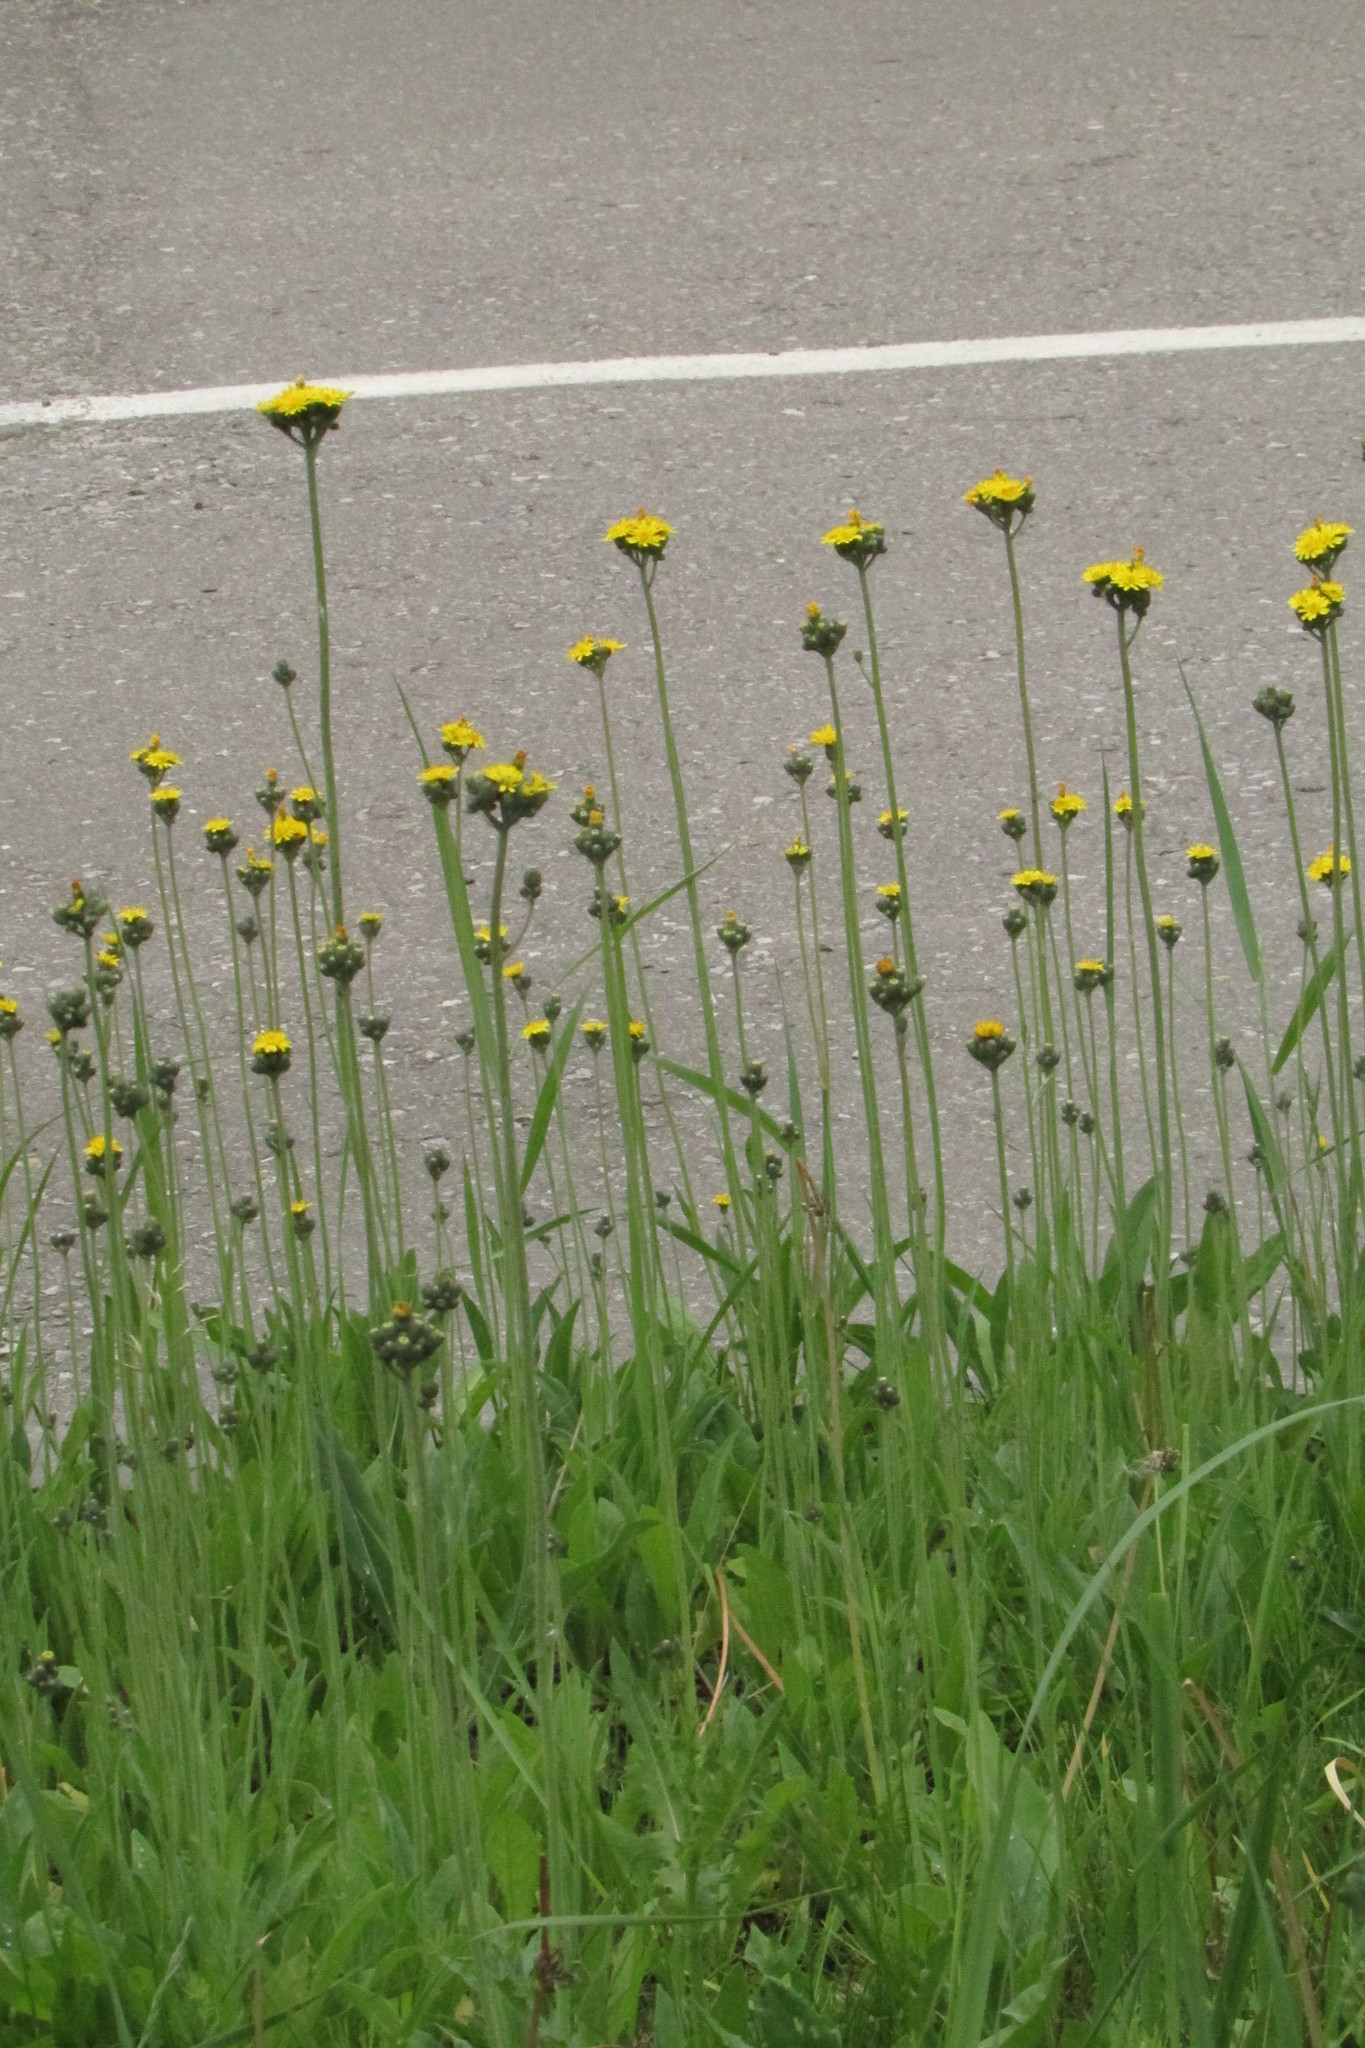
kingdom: Plantae
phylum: Tracheophyta
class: Magnoliopsida
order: Asterales
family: Asteraceae
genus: Pilosella
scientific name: Pilosella
